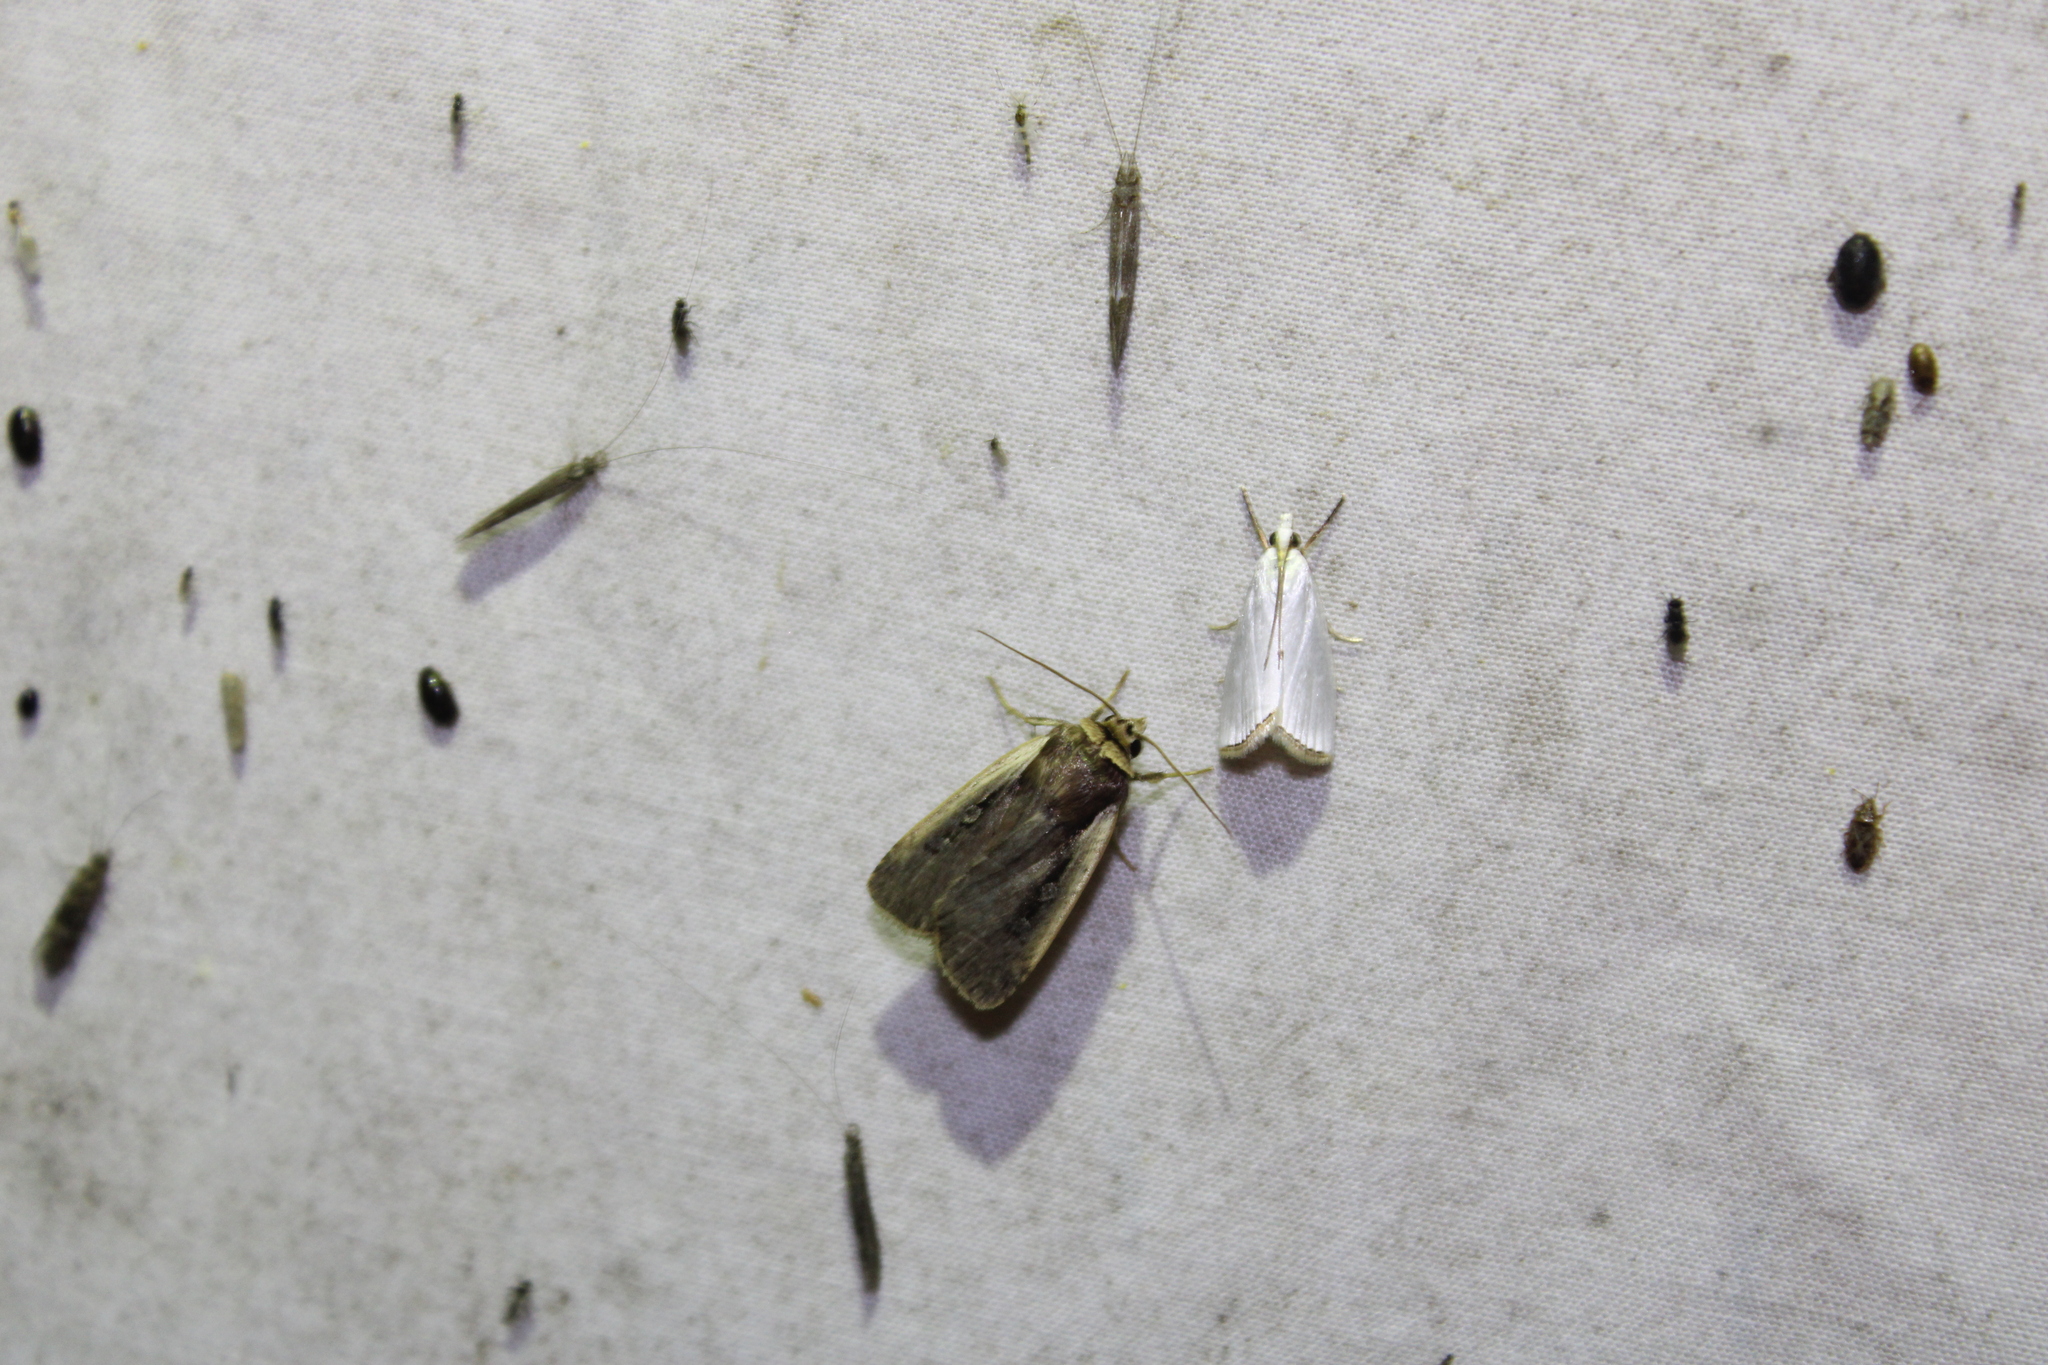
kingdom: Animalia
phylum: Arthropoda
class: Insecta
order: Lepidoptera
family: Noctuidae
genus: Ochropleura
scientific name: Ochropleura implecta
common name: Flame-shouldered dart
